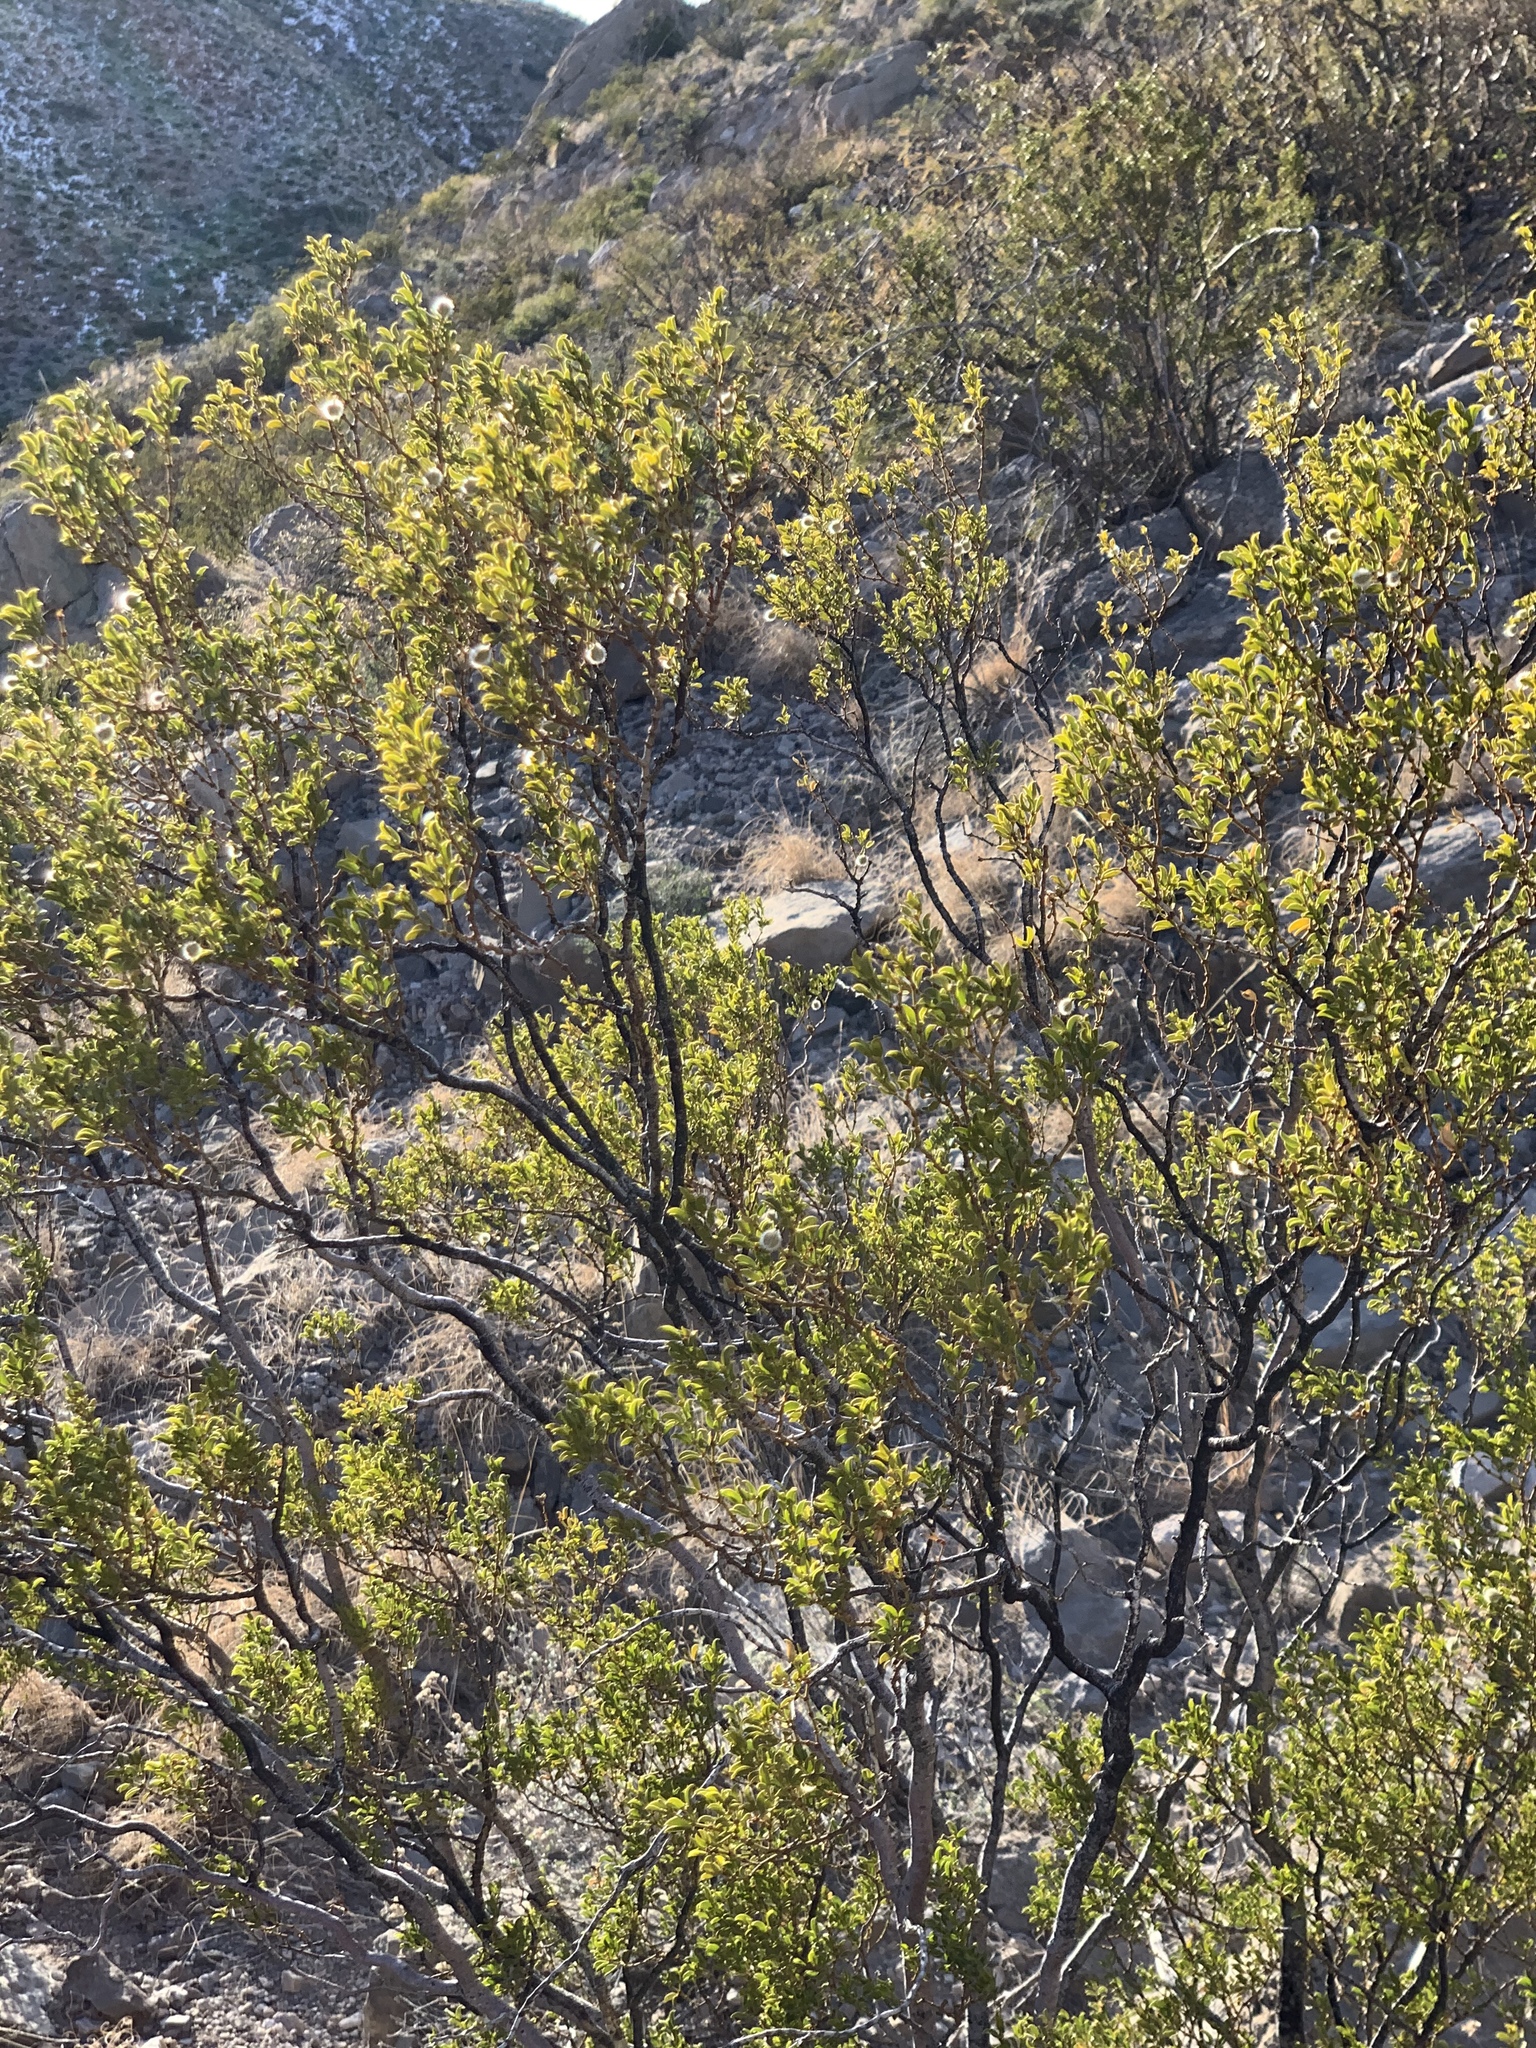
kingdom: Plantae
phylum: Tracheophyta
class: Magnoliopsida
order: Zygophyllales
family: Zygophyllaceae
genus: Larrea
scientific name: Larrea tridentata
